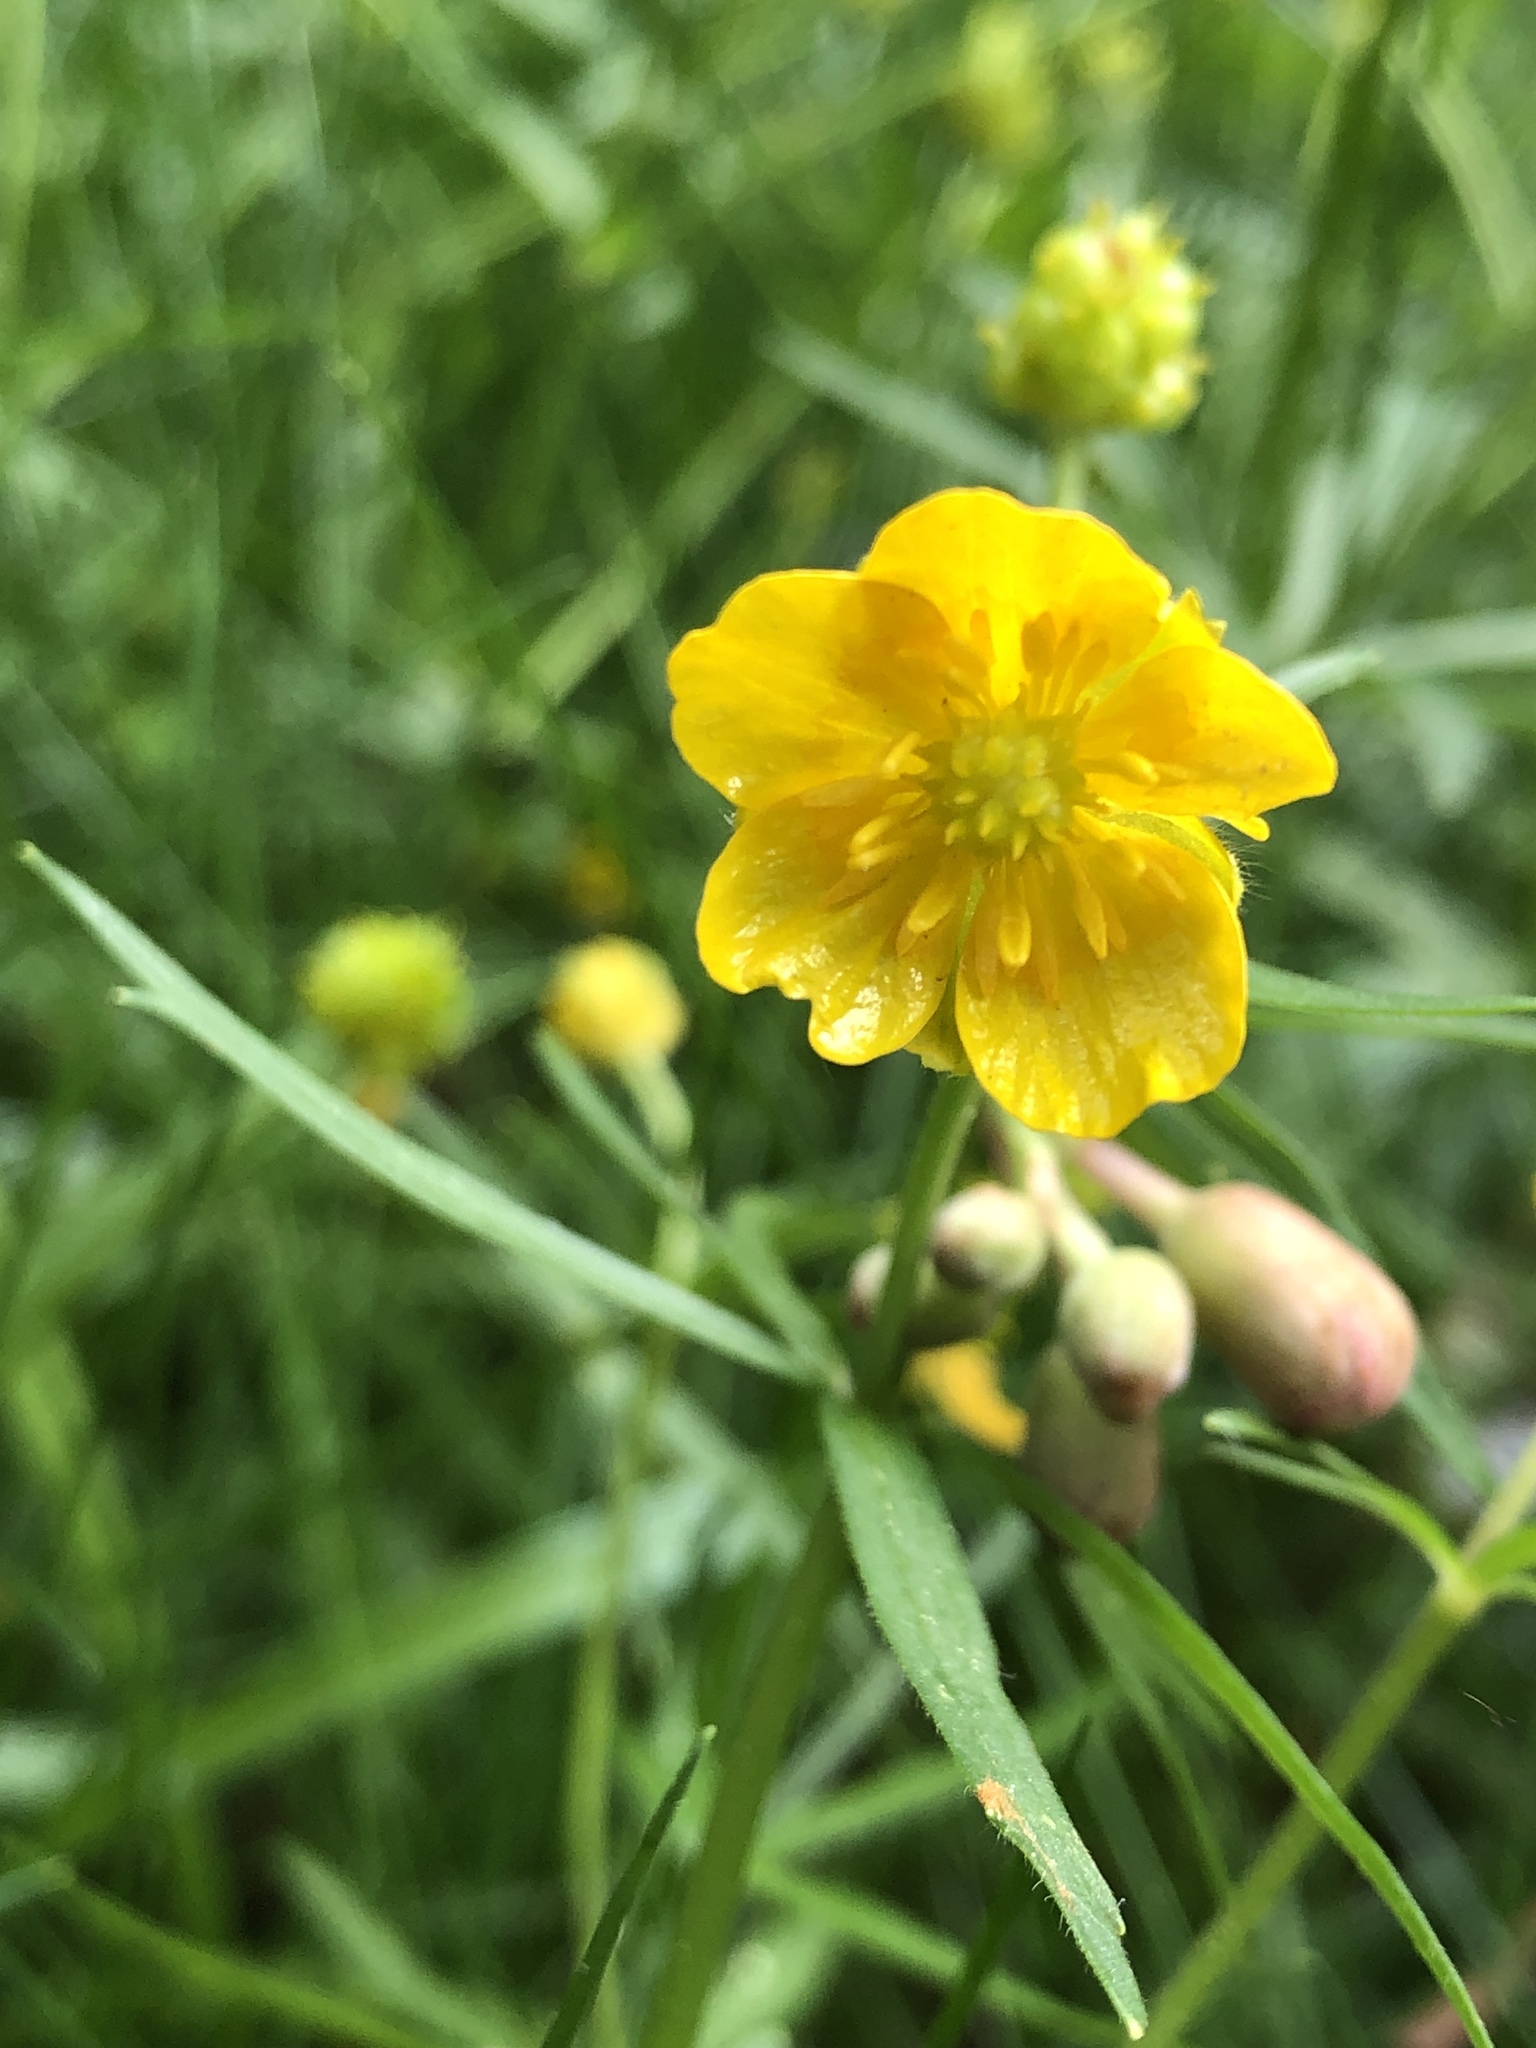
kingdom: Plantae
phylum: Tracheophyta
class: Magnoliopsida
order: Ranunculales
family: Ranunculaceae
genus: Ranunculus
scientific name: Ranunculus auricomus
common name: Goldilocks buttercup
